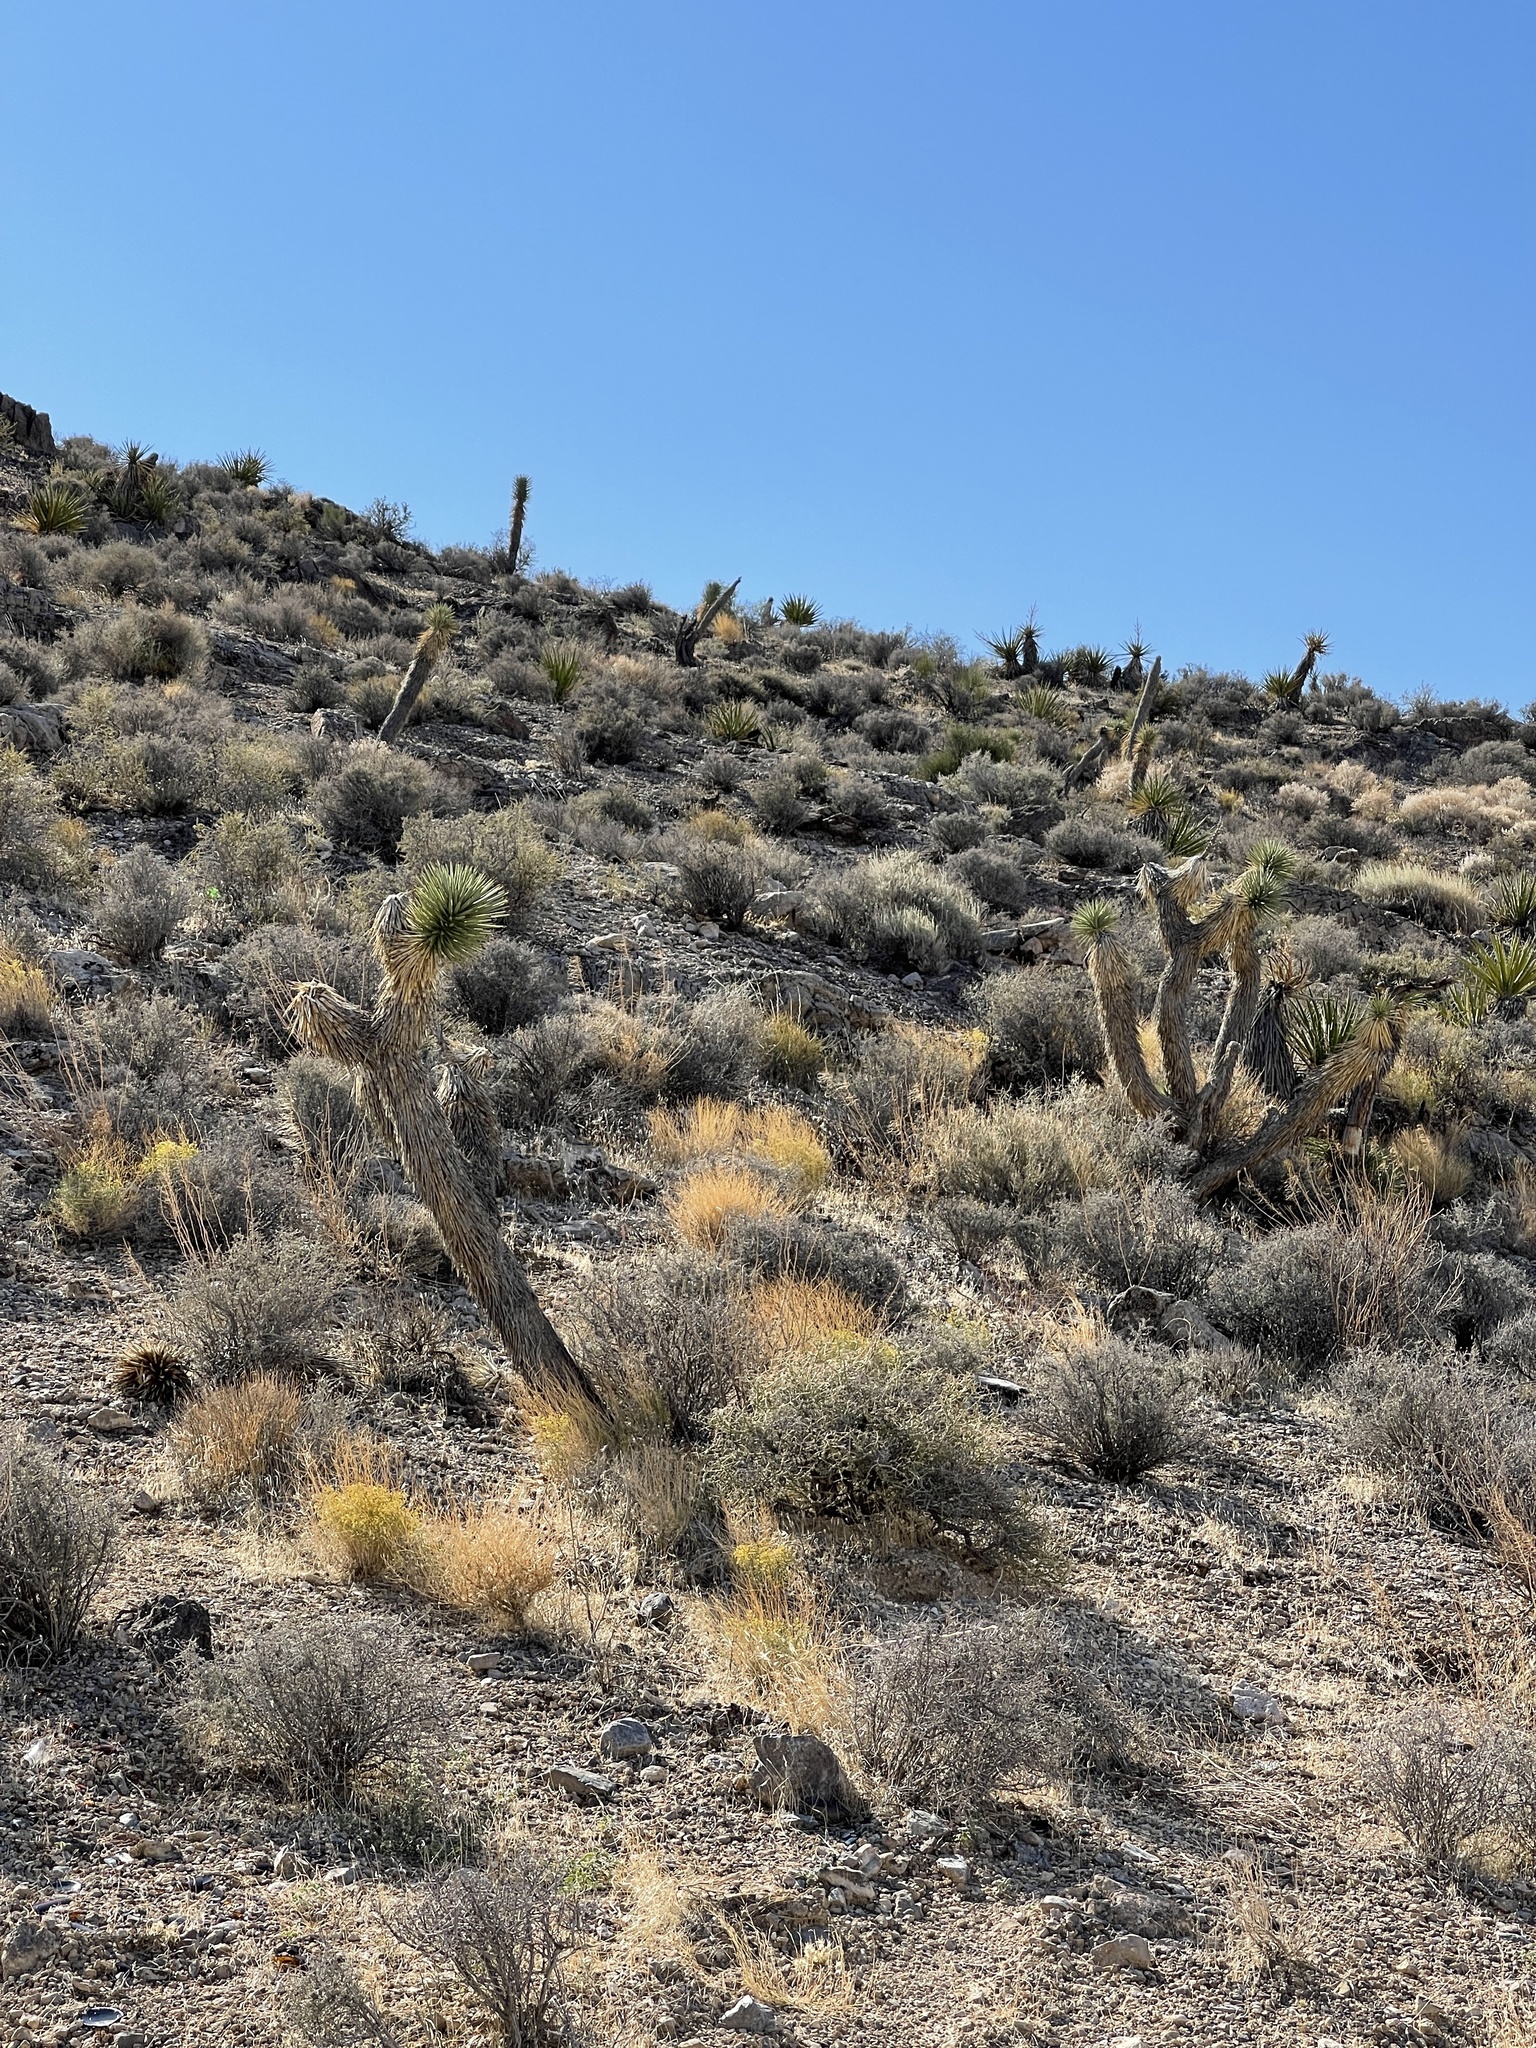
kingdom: Plantae
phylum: Tracheophyta
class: Liliopsida
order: Asparagales
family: Asparagaceae
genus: Yucca
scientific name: Yucca brevifolia
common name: Joshua tree
